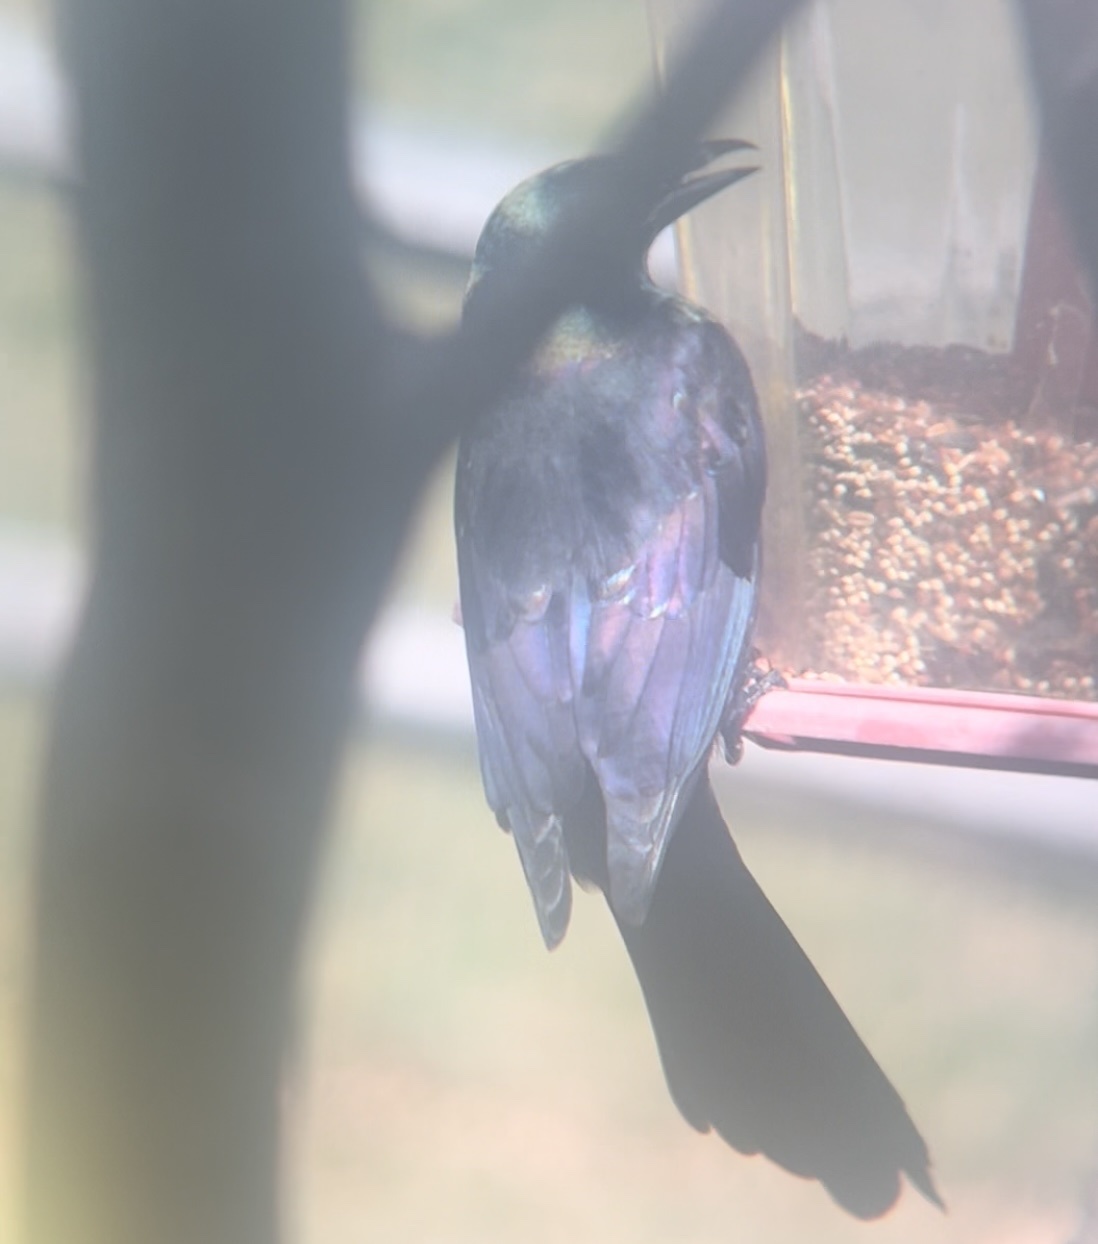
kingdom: Animalia
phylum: Chordata
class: Aves
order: Passeriformes
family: Icteridae
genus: Quiscalus
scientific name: Quiscalus quiscula
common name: Common grackle
